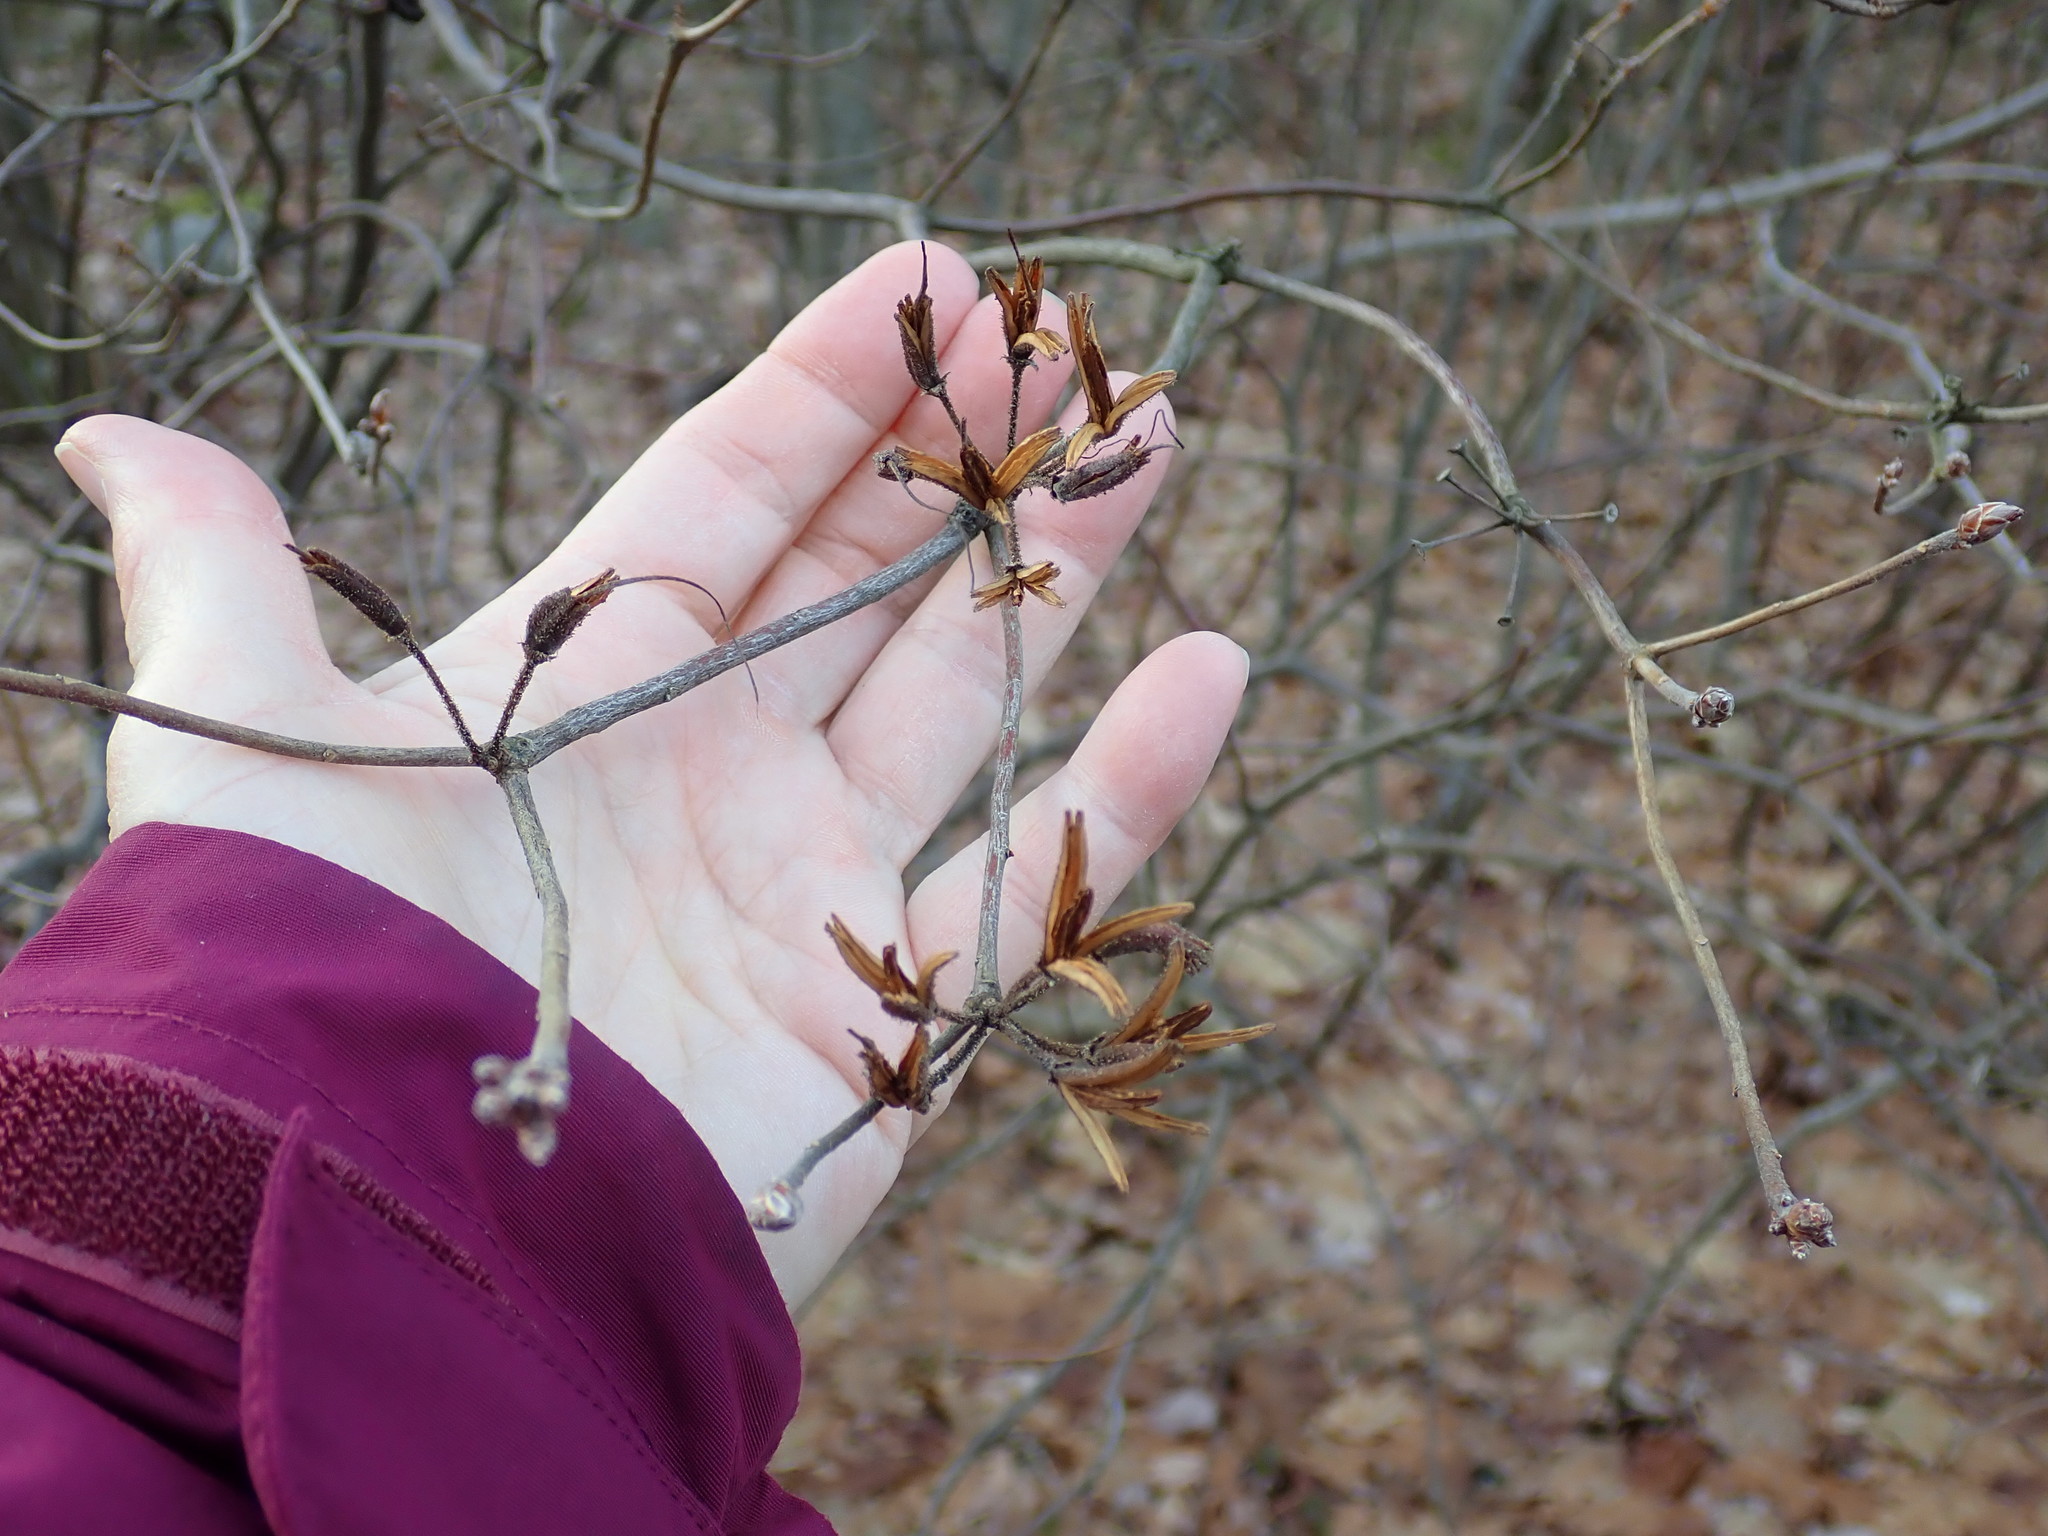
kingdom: Plantae
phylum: Tracheophyta
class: Magnoliopsida
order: Ericales
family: Ericaceae
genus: Rhododendron
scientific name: Rhododendron
